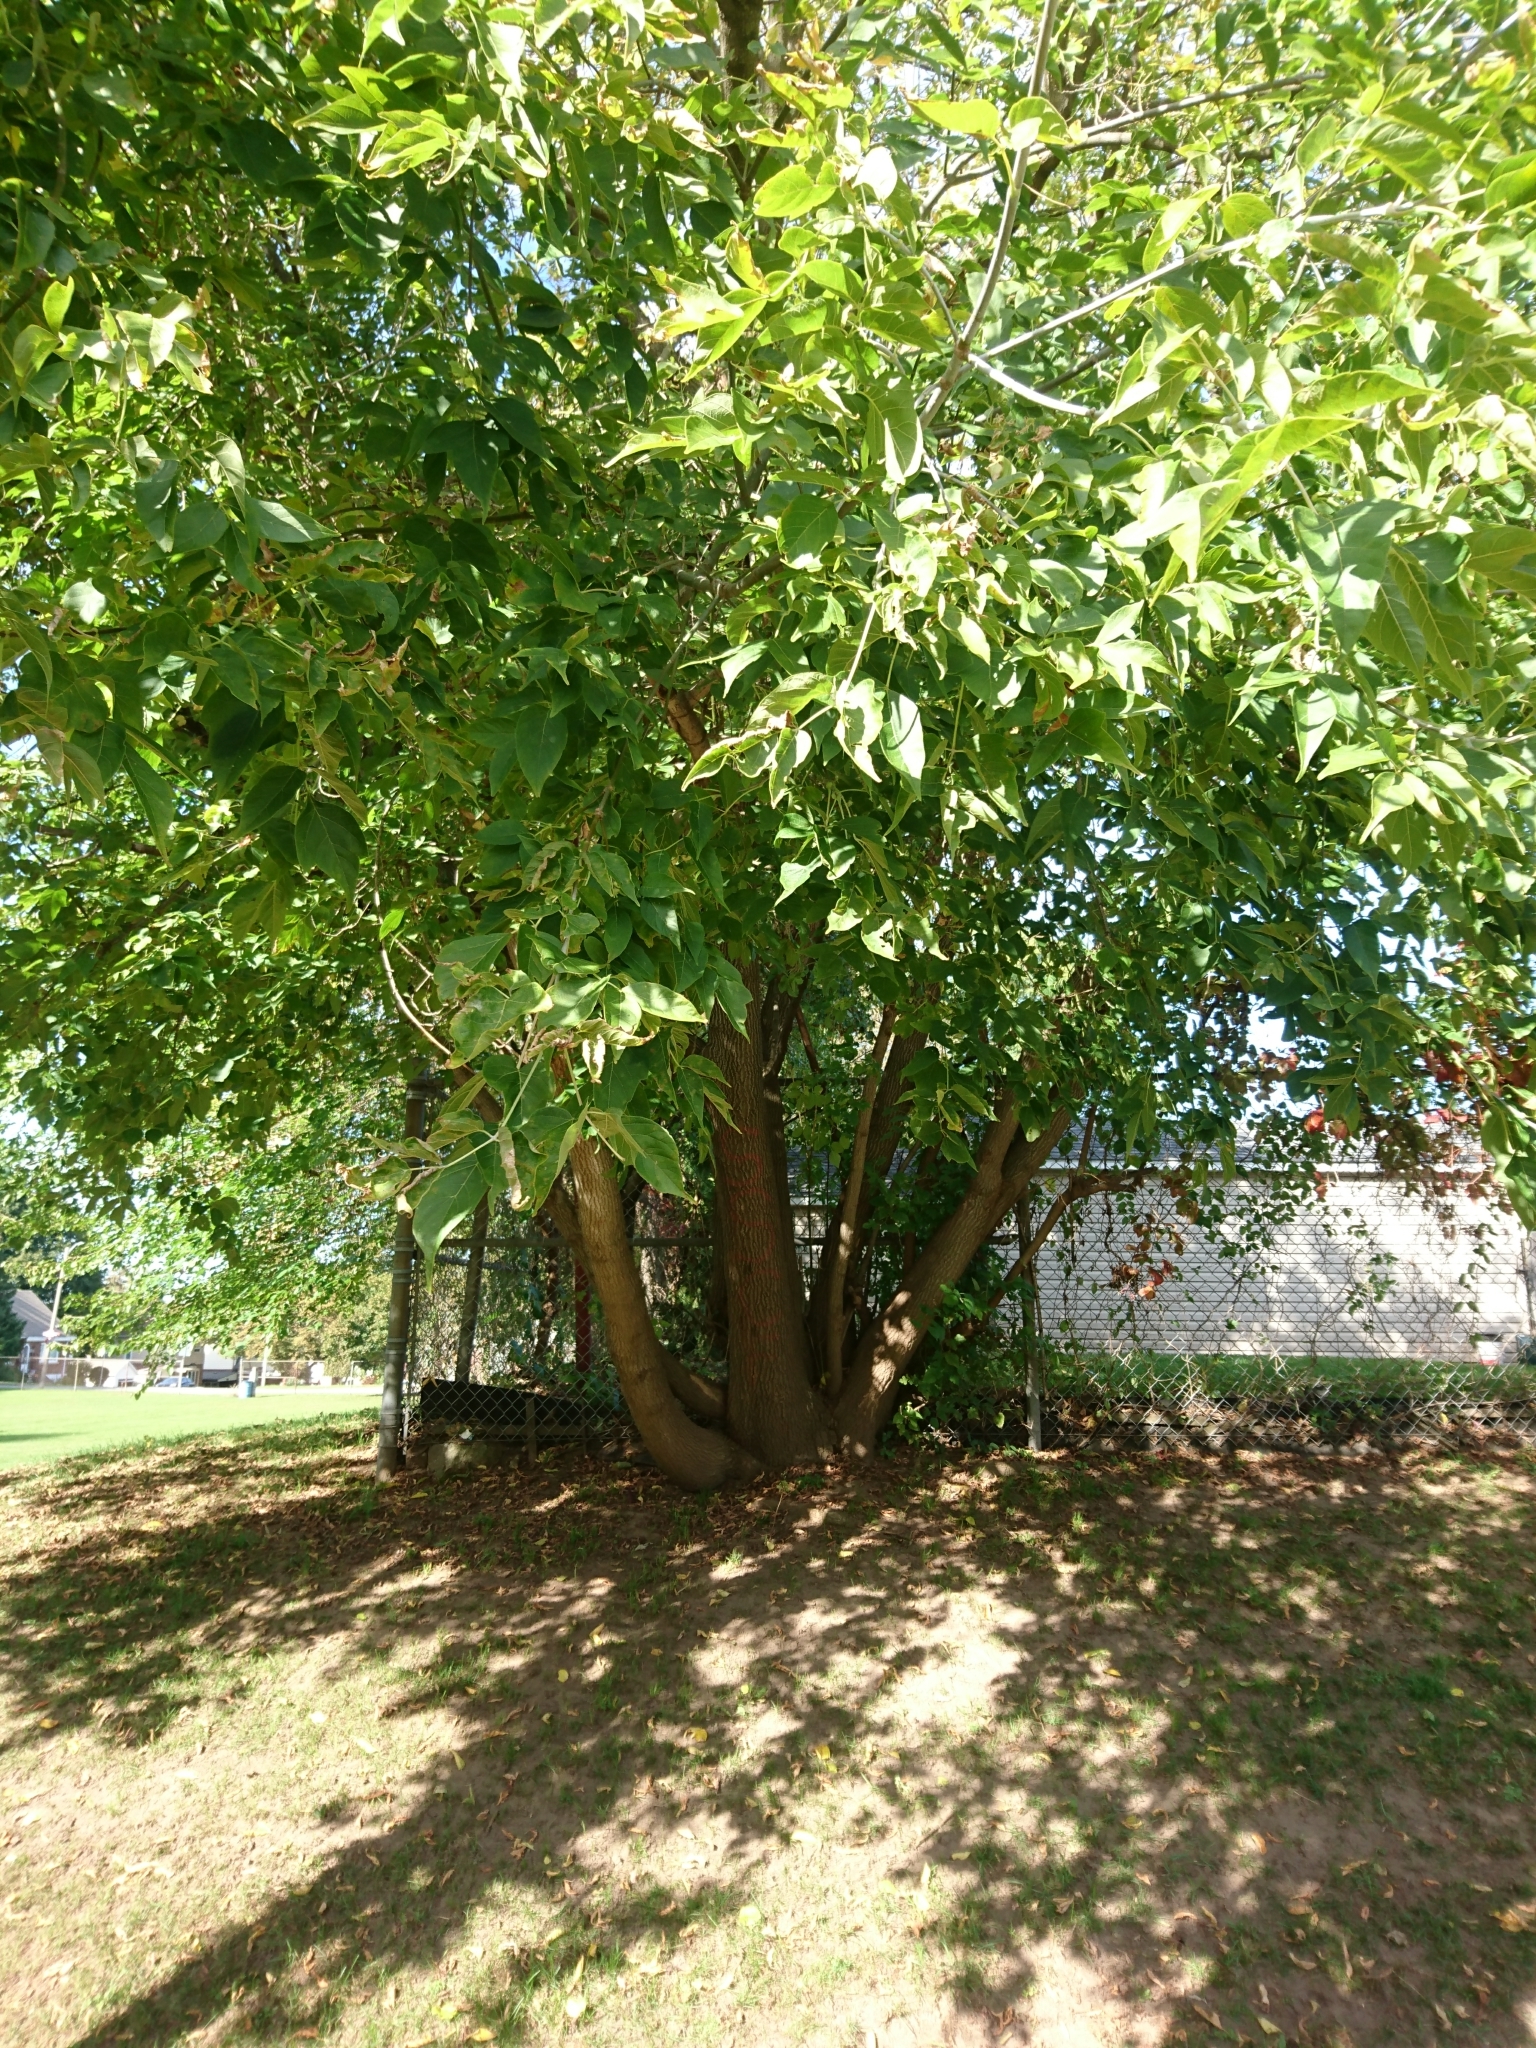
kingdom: Plantae
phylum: Tracheophyta
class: Magnoliopsida
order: Sapindales
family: Sapindaceae
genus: Acer
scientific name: Acer negundo
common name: Ashleaf maple
